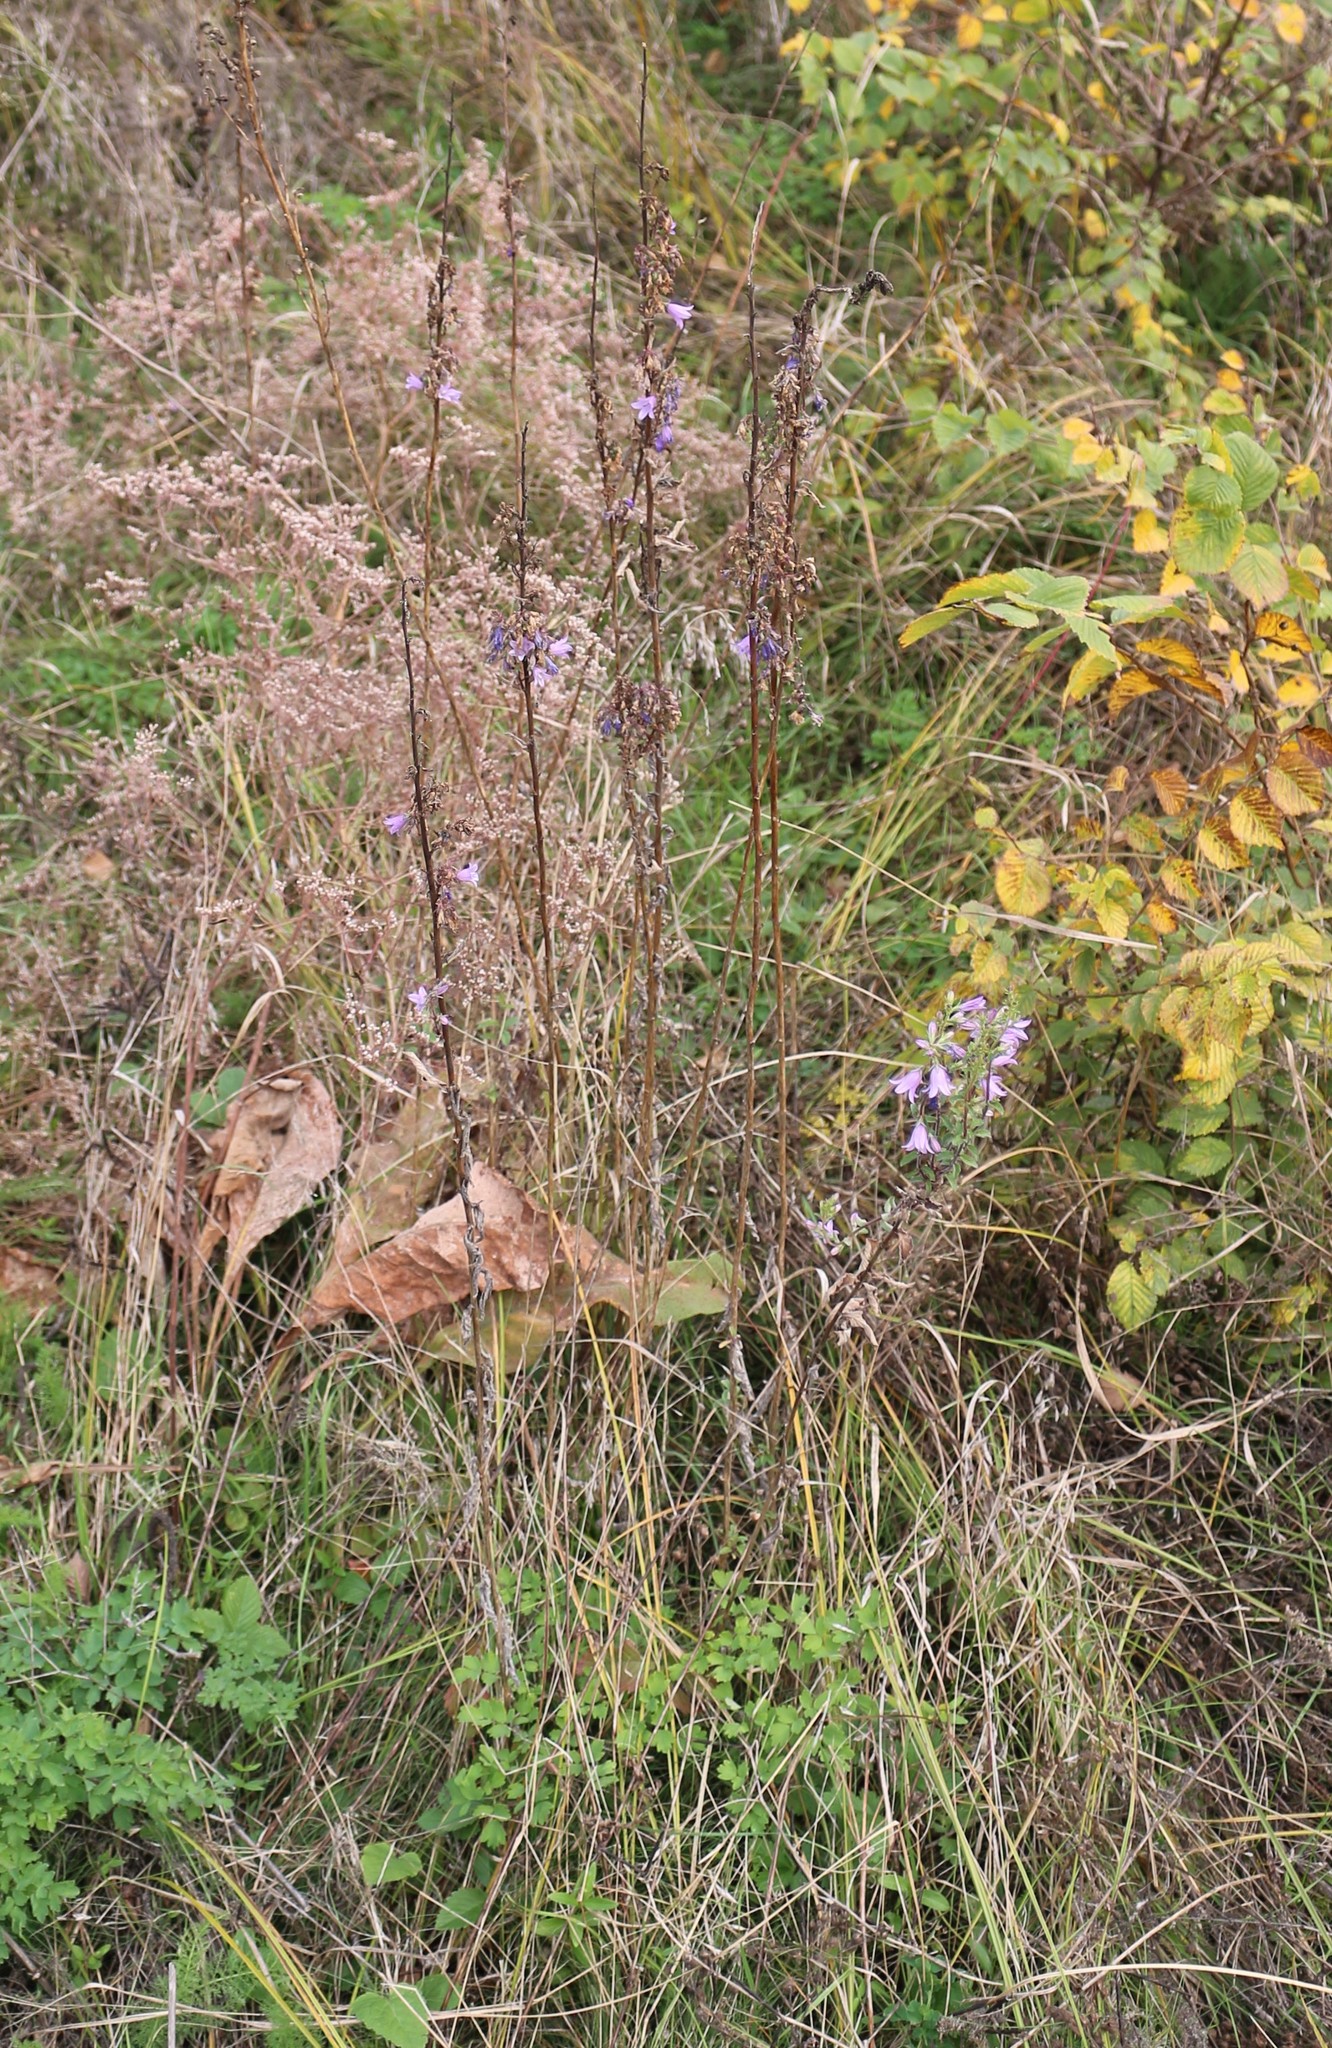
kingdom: Plantae
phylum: Tracheophyta
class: Magnoliopsida
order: Asterales
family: Campanulaceae
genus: Campanula
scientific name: Campanula bononiensis
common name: Pale bellflower
